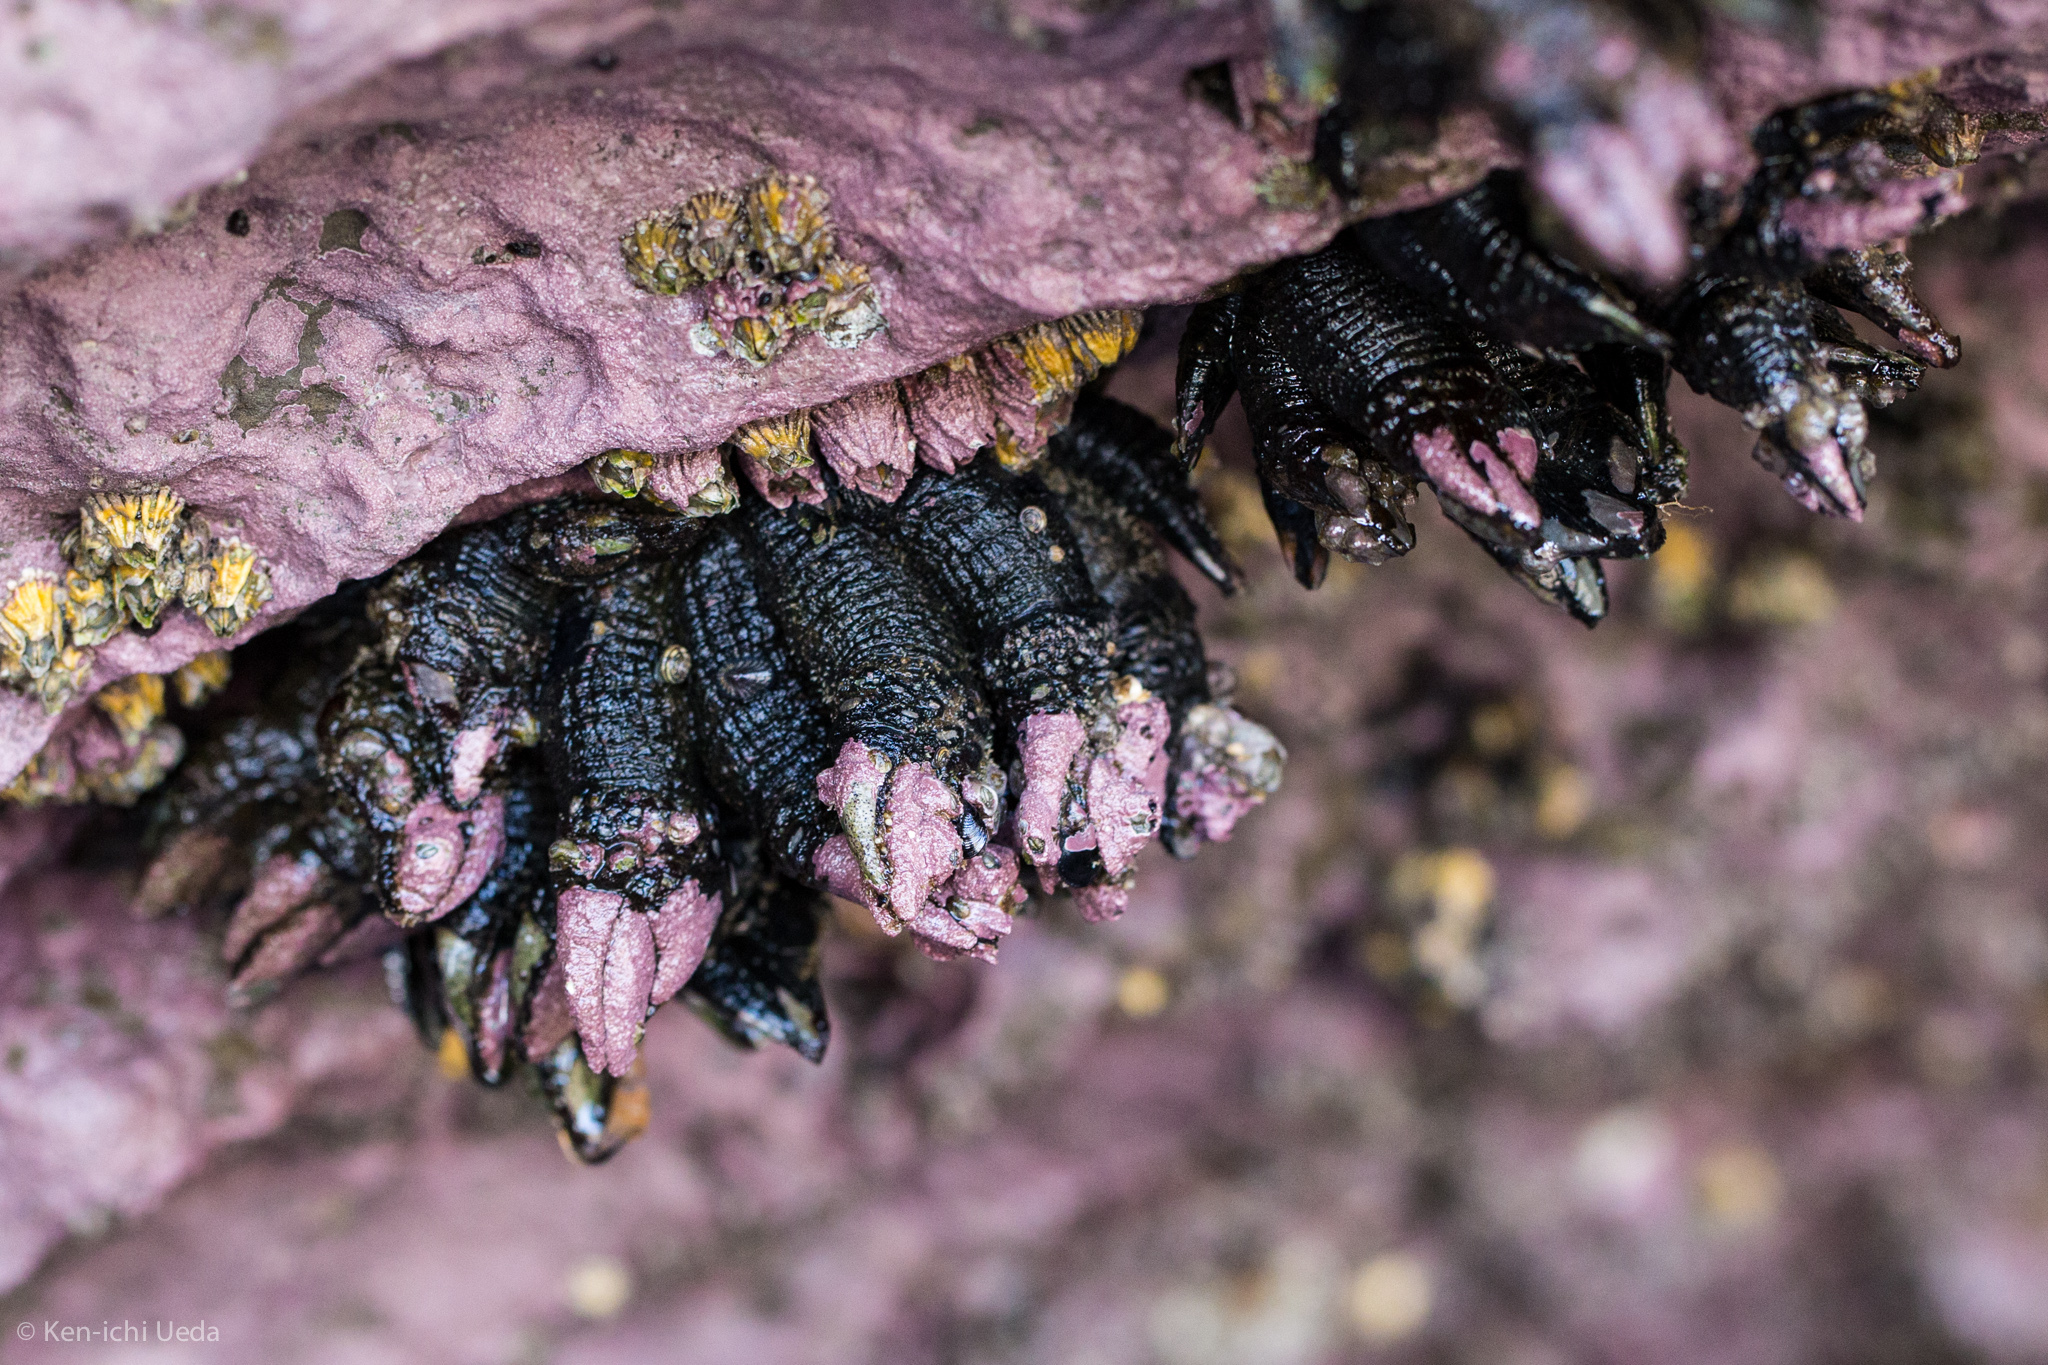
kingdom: Animalia
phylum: Arthropoda
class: Maxillopoda
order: Pedunculata
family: Calanticidae
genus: Calantica
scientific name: Calantica spinosa
